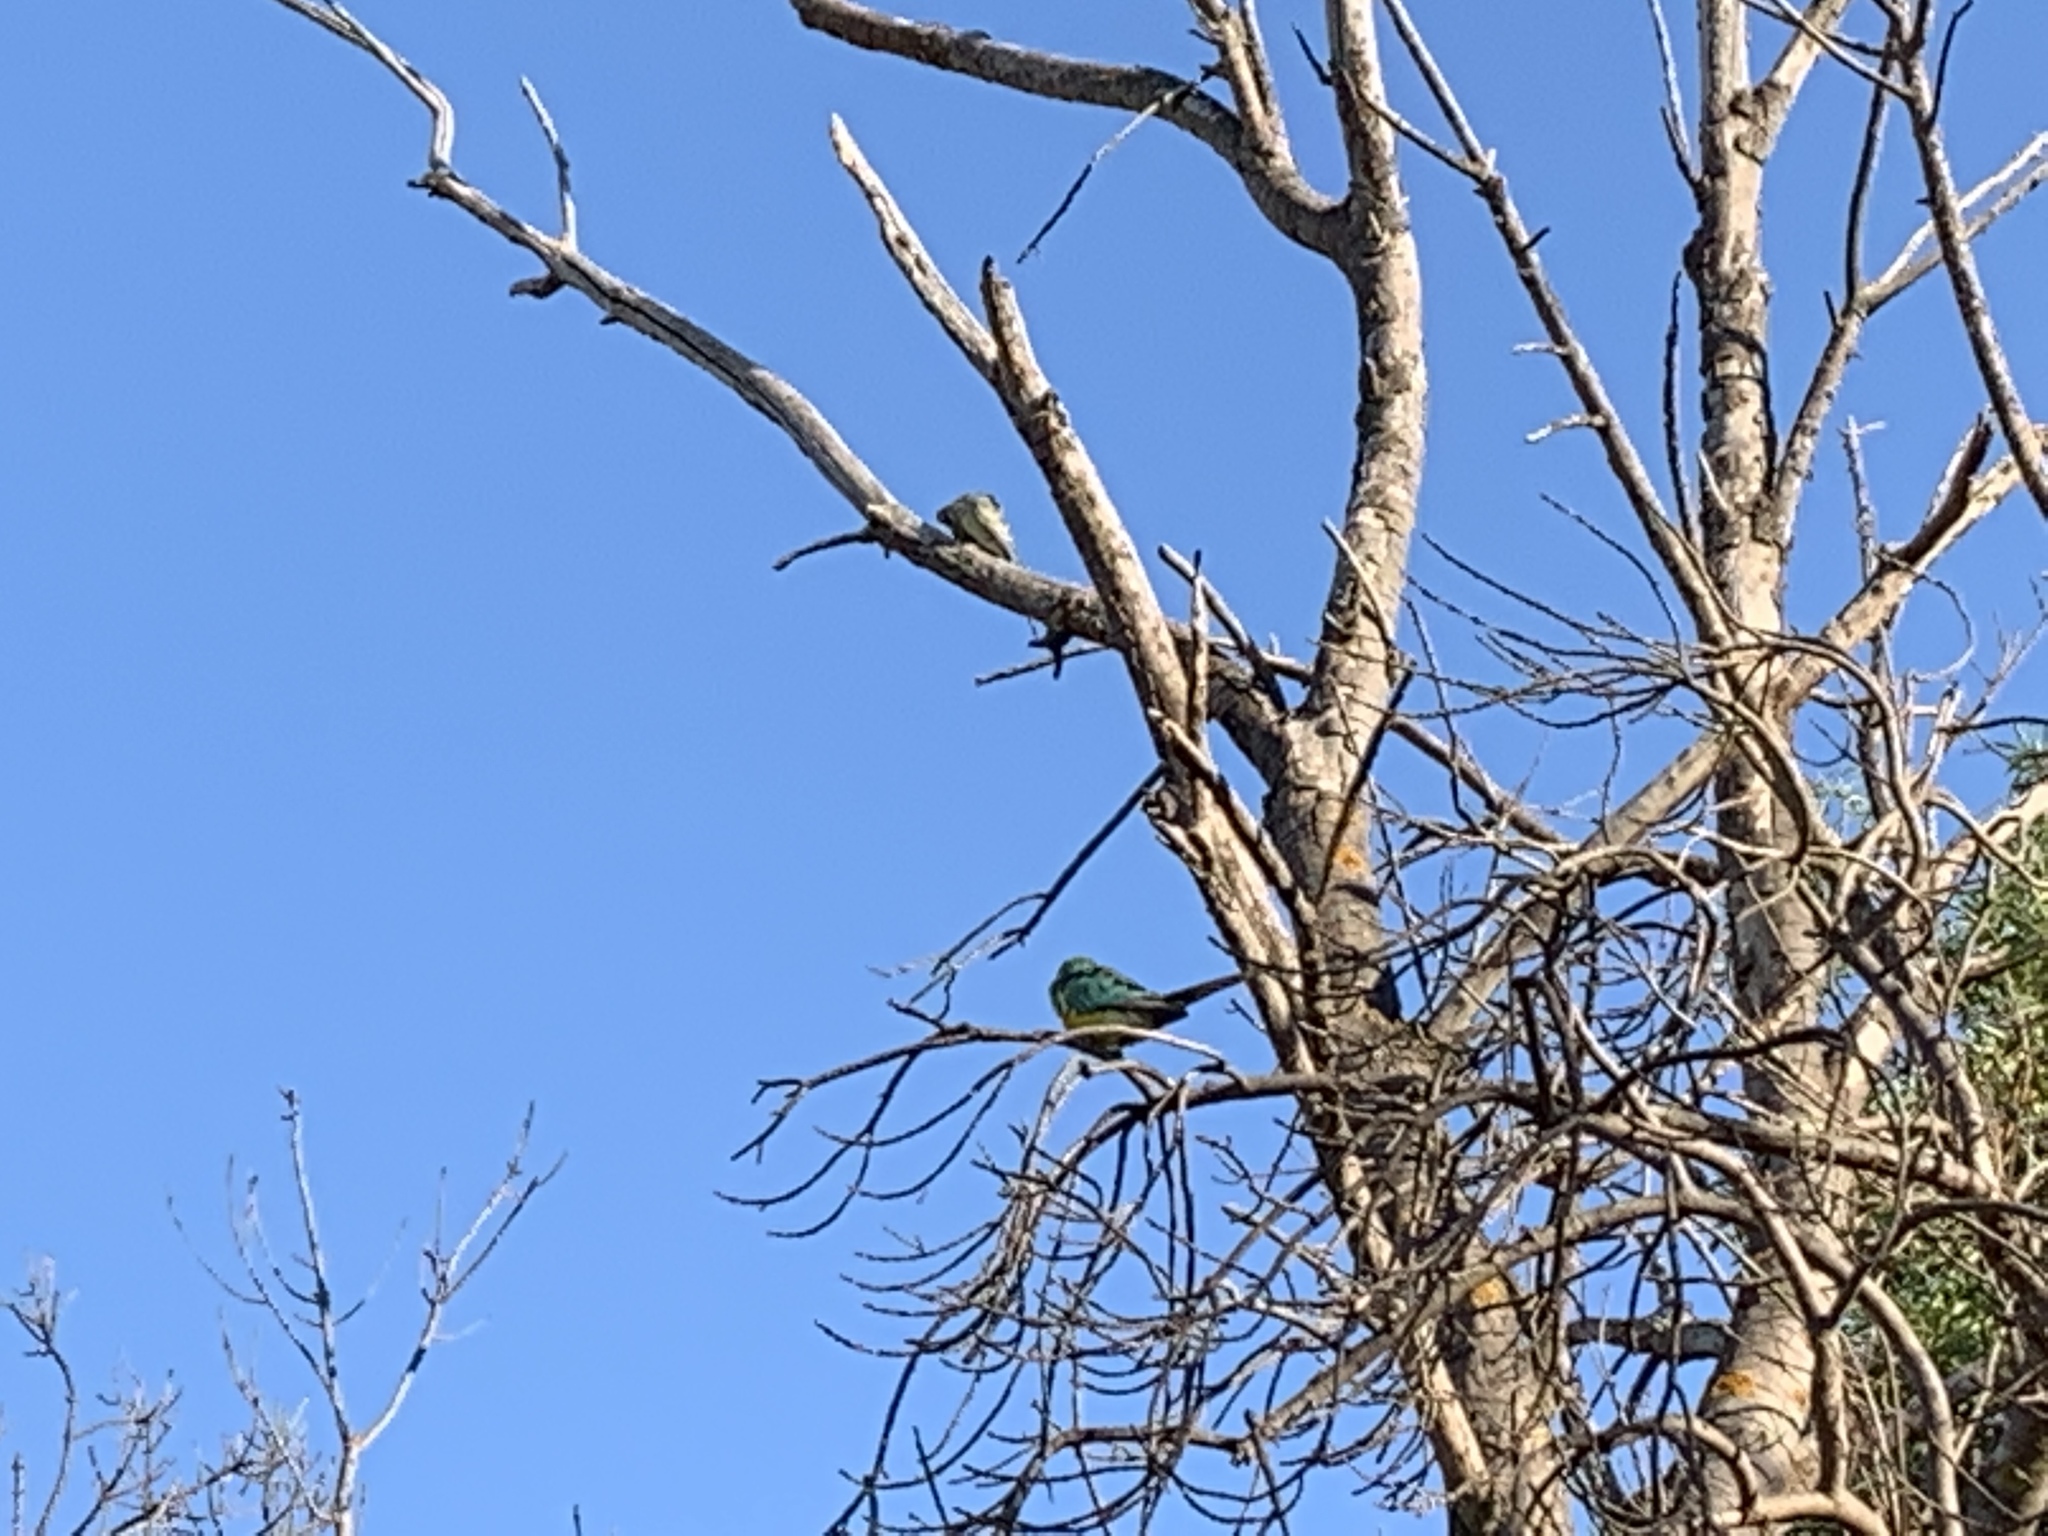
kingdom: Animalia
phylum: Chordata
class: Aves
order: Psittaciformes
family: Psittacidae
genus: Psephotus
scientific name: Psephotus haematonotus
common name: Red-rumped parrot
